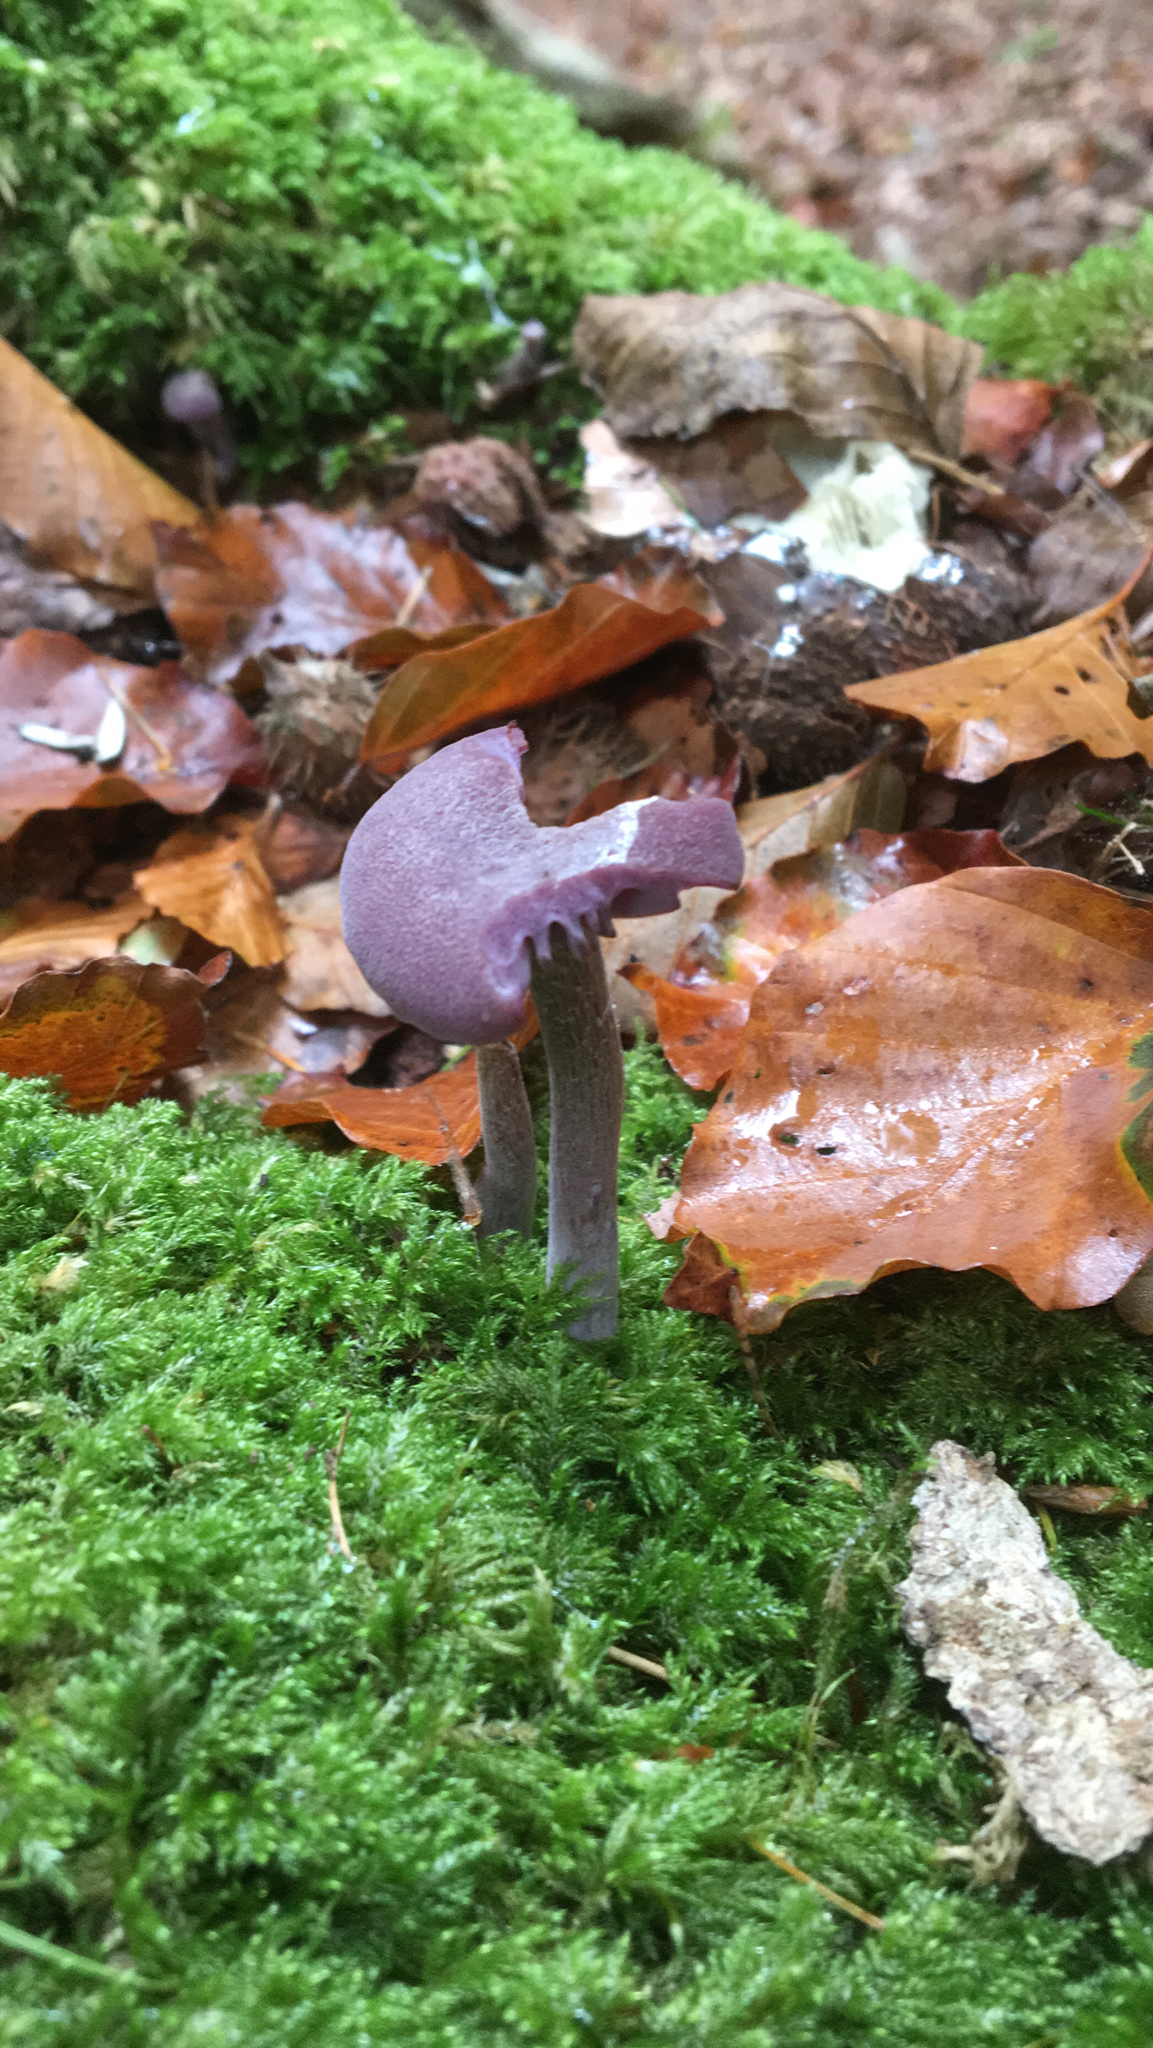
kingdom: Fungi
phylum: Basidiomycota
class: Agaricomycetes
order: Agaricales
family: Hydnangiaceae
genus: Laccaria
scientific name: Laccaria amethystina
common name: Amethyst deceiver
